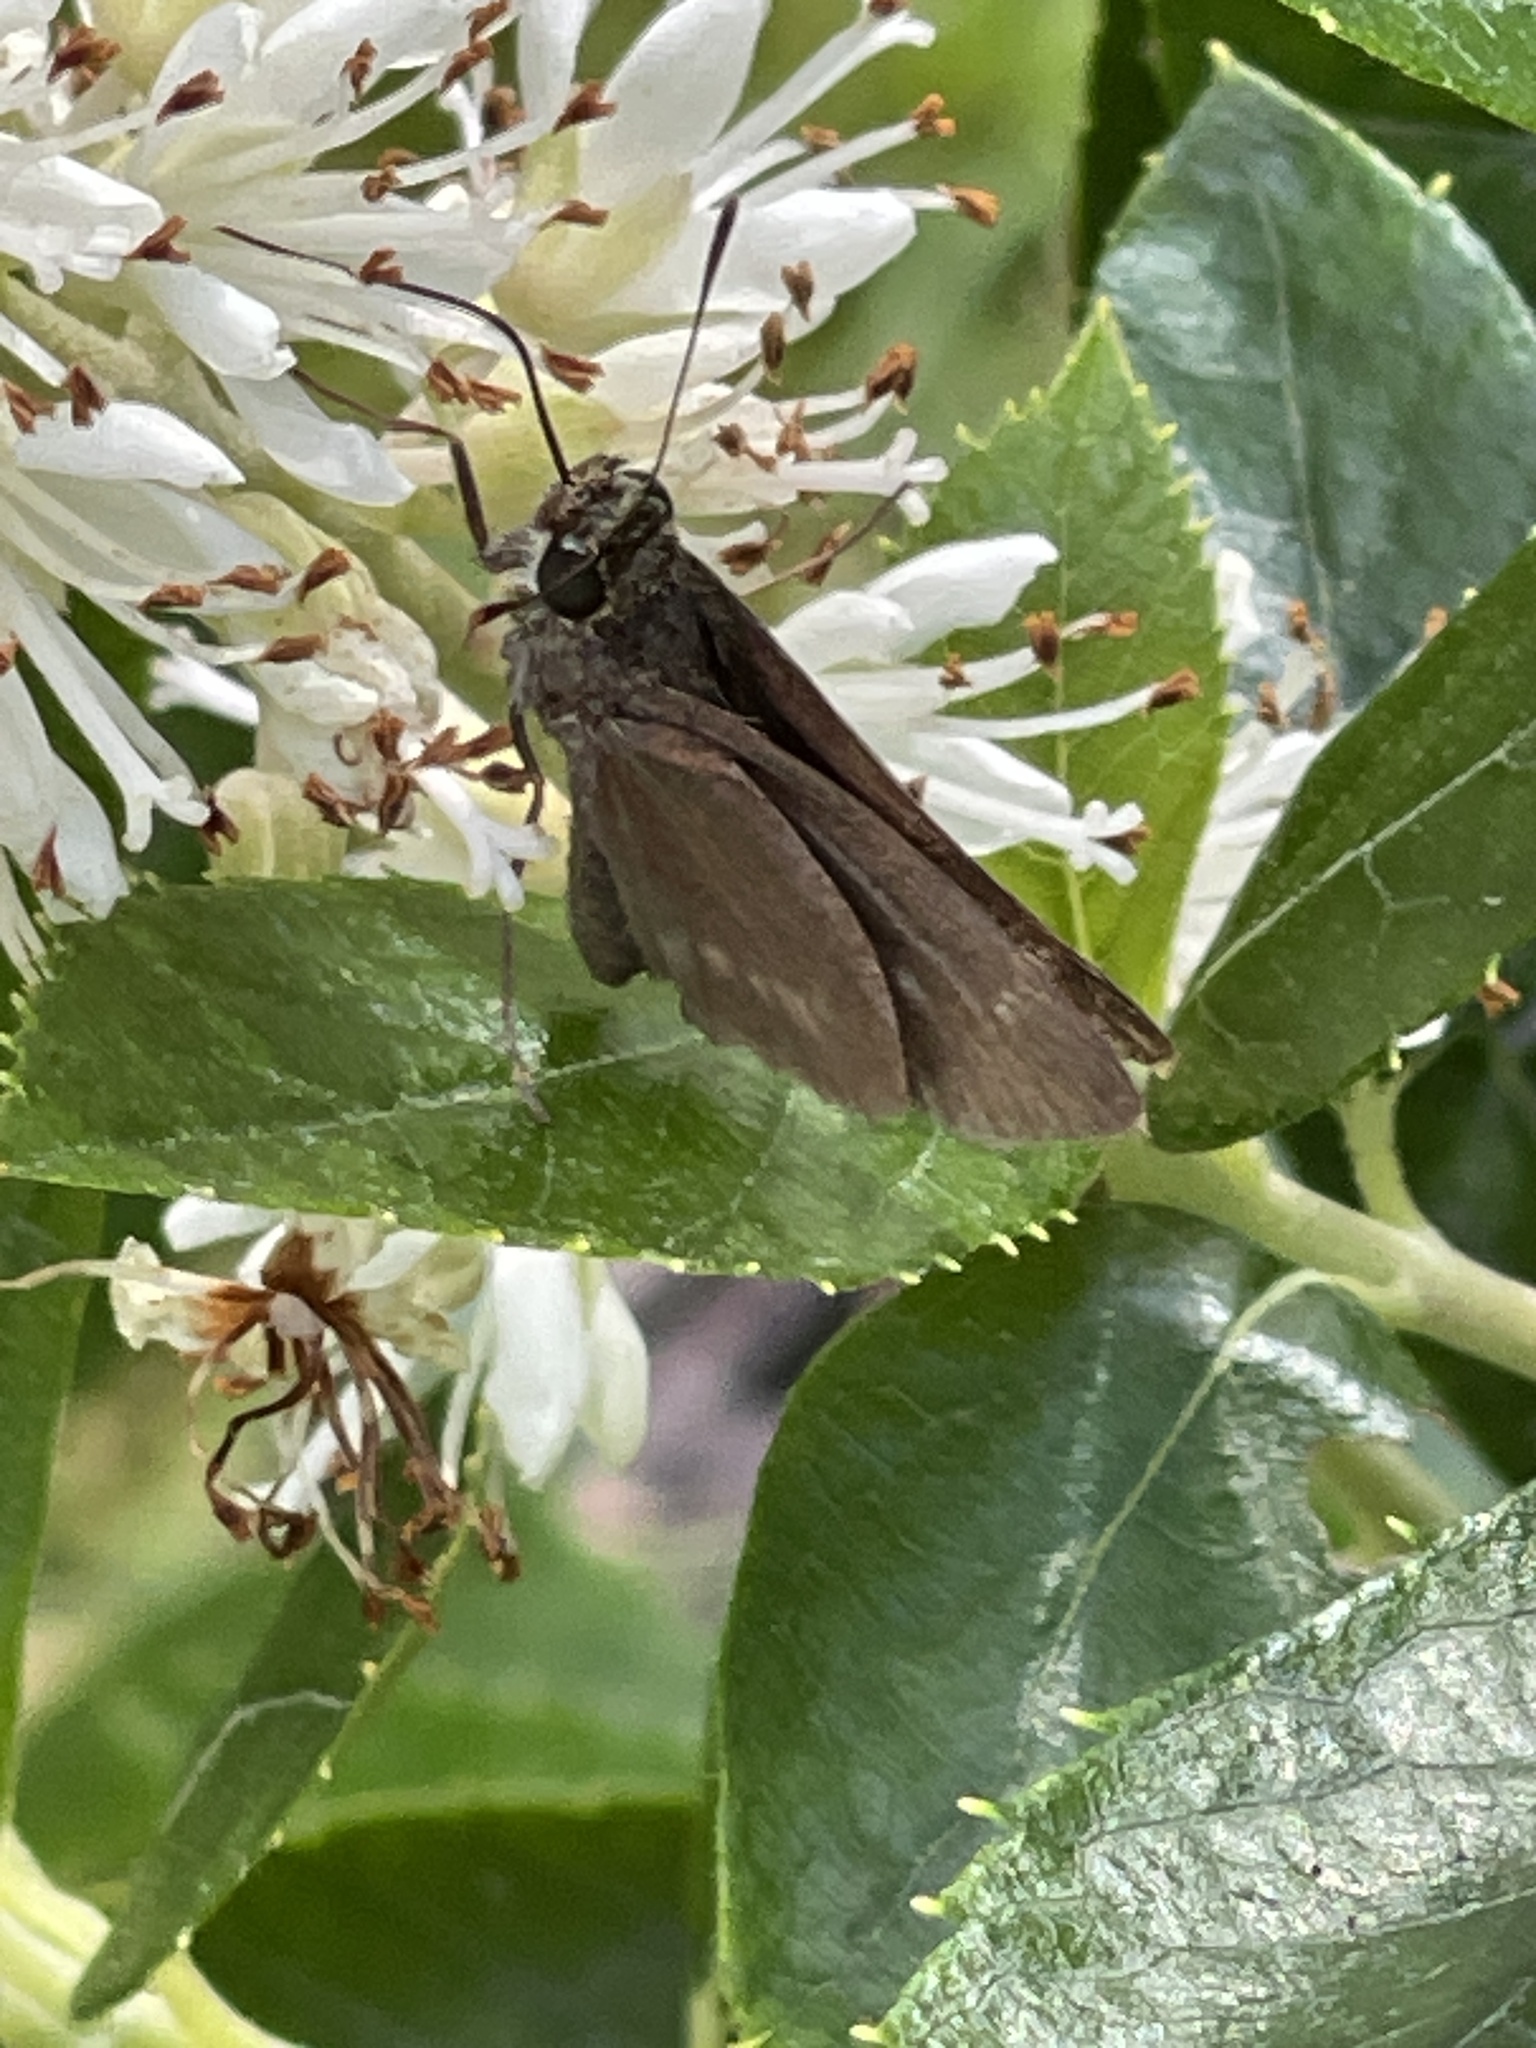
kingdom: Animalia
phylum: Arthropoda
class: Insecta
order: Lepidoptera
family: Hesperiidae
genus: Euphyes
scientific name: Euphyes vestris
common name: Dun skipper
